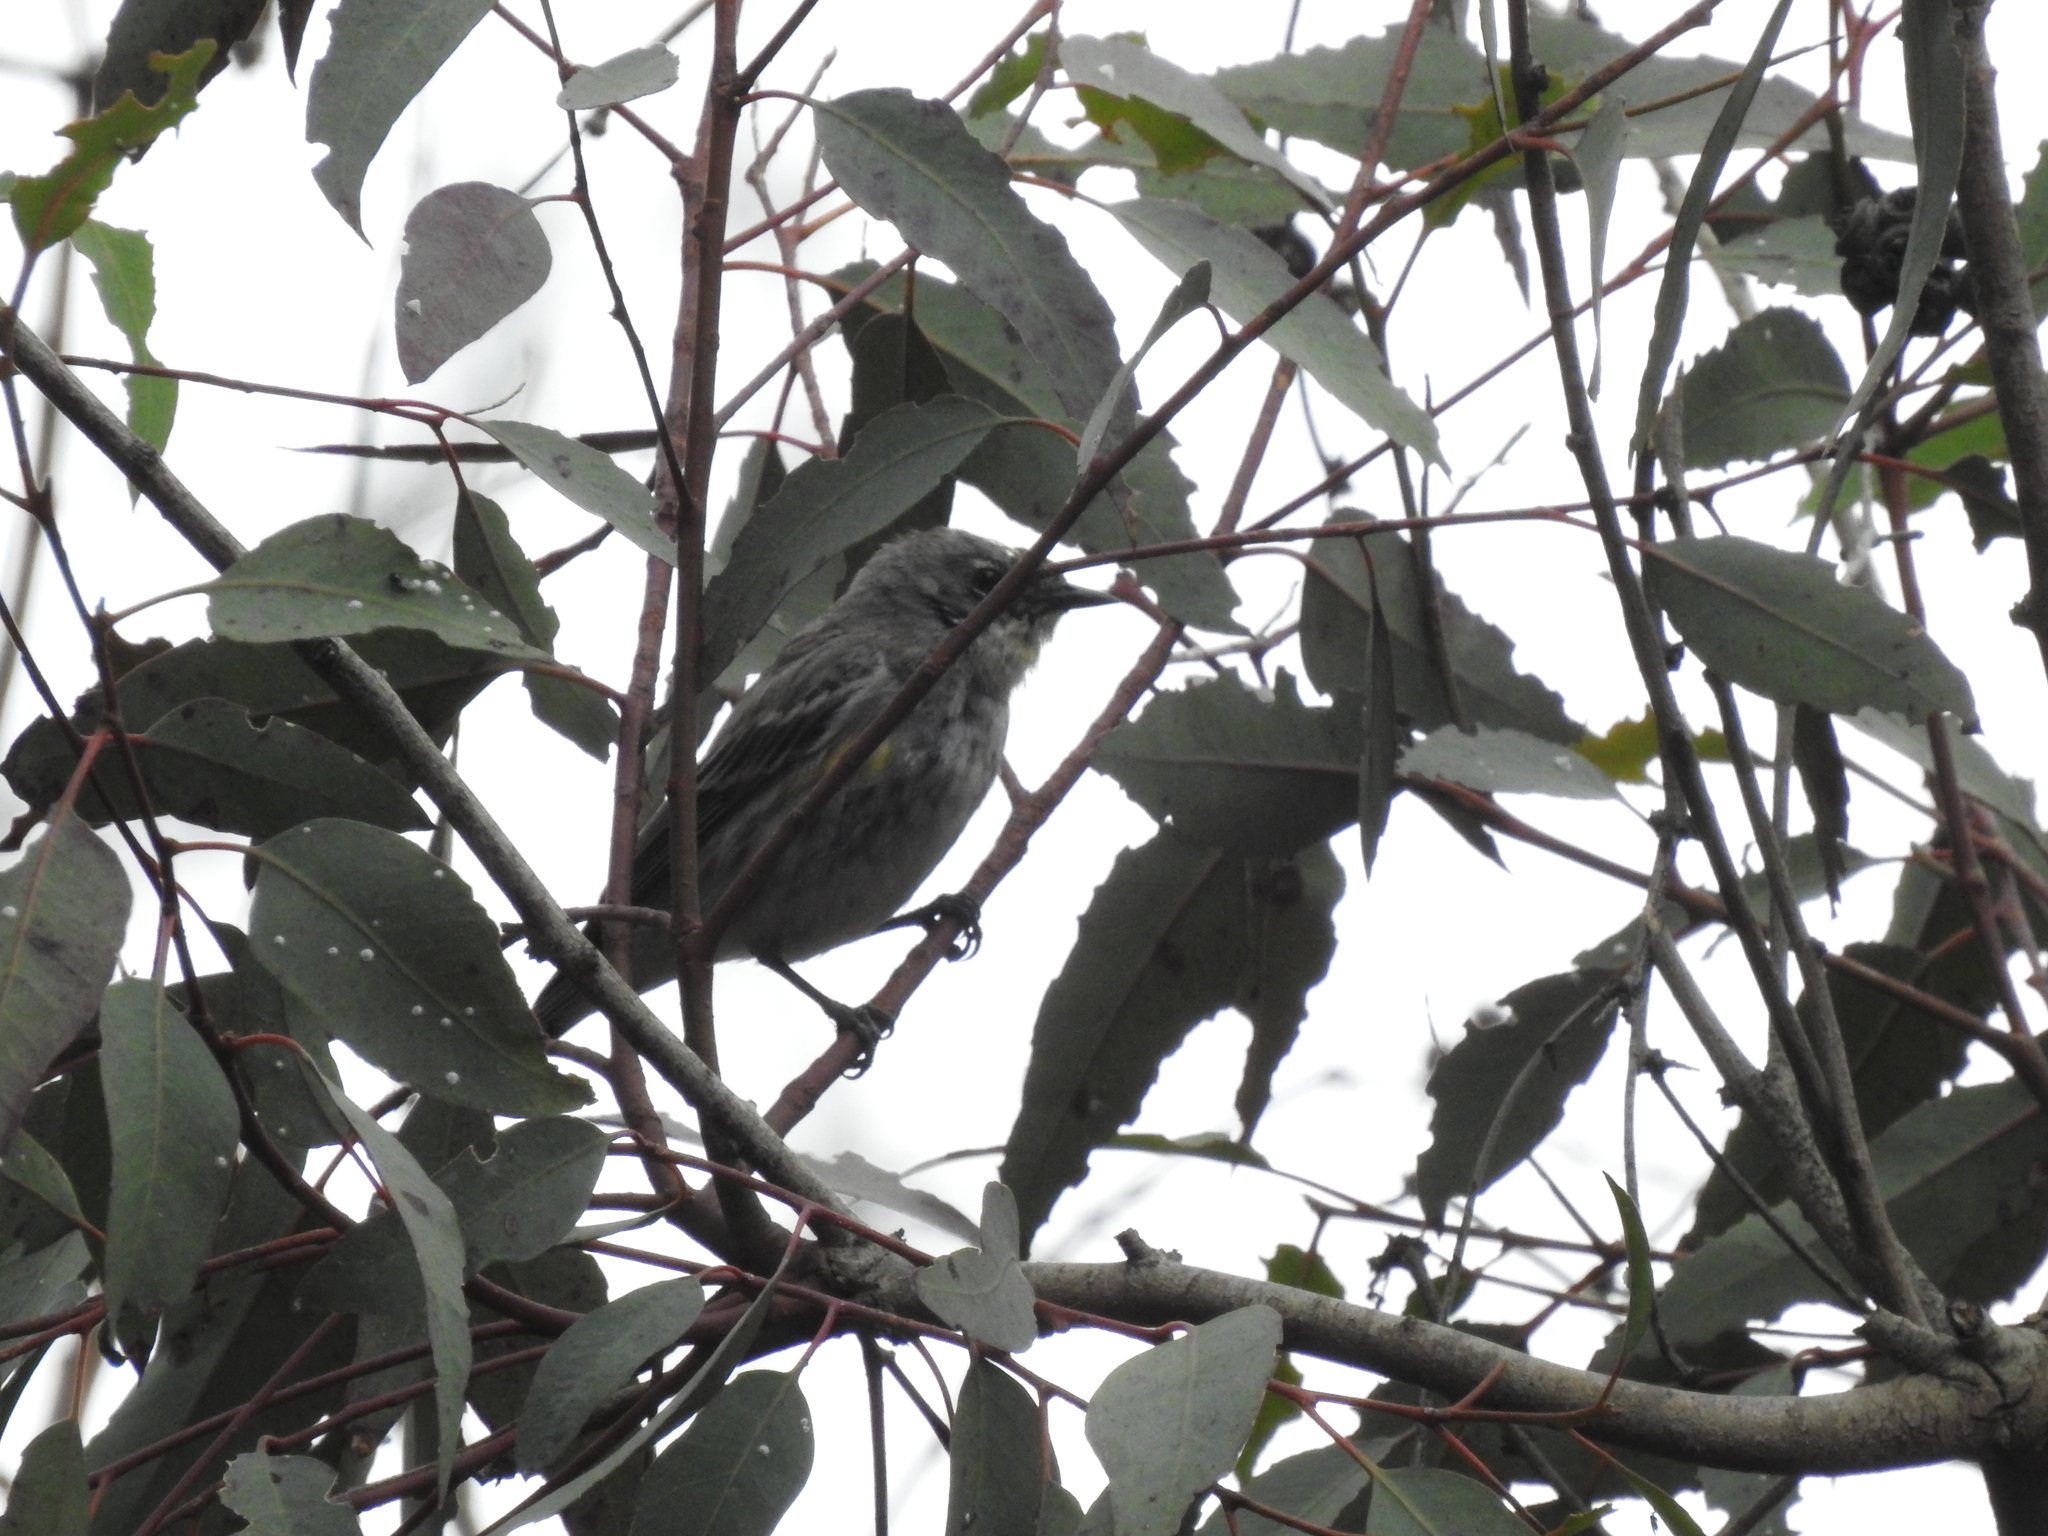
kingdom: Animalia
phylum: Chordata
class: Aves
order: Passeriformes
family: Parulidae
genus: Setophaga
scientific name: Setophaga coronata
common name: Myrtle warbler
